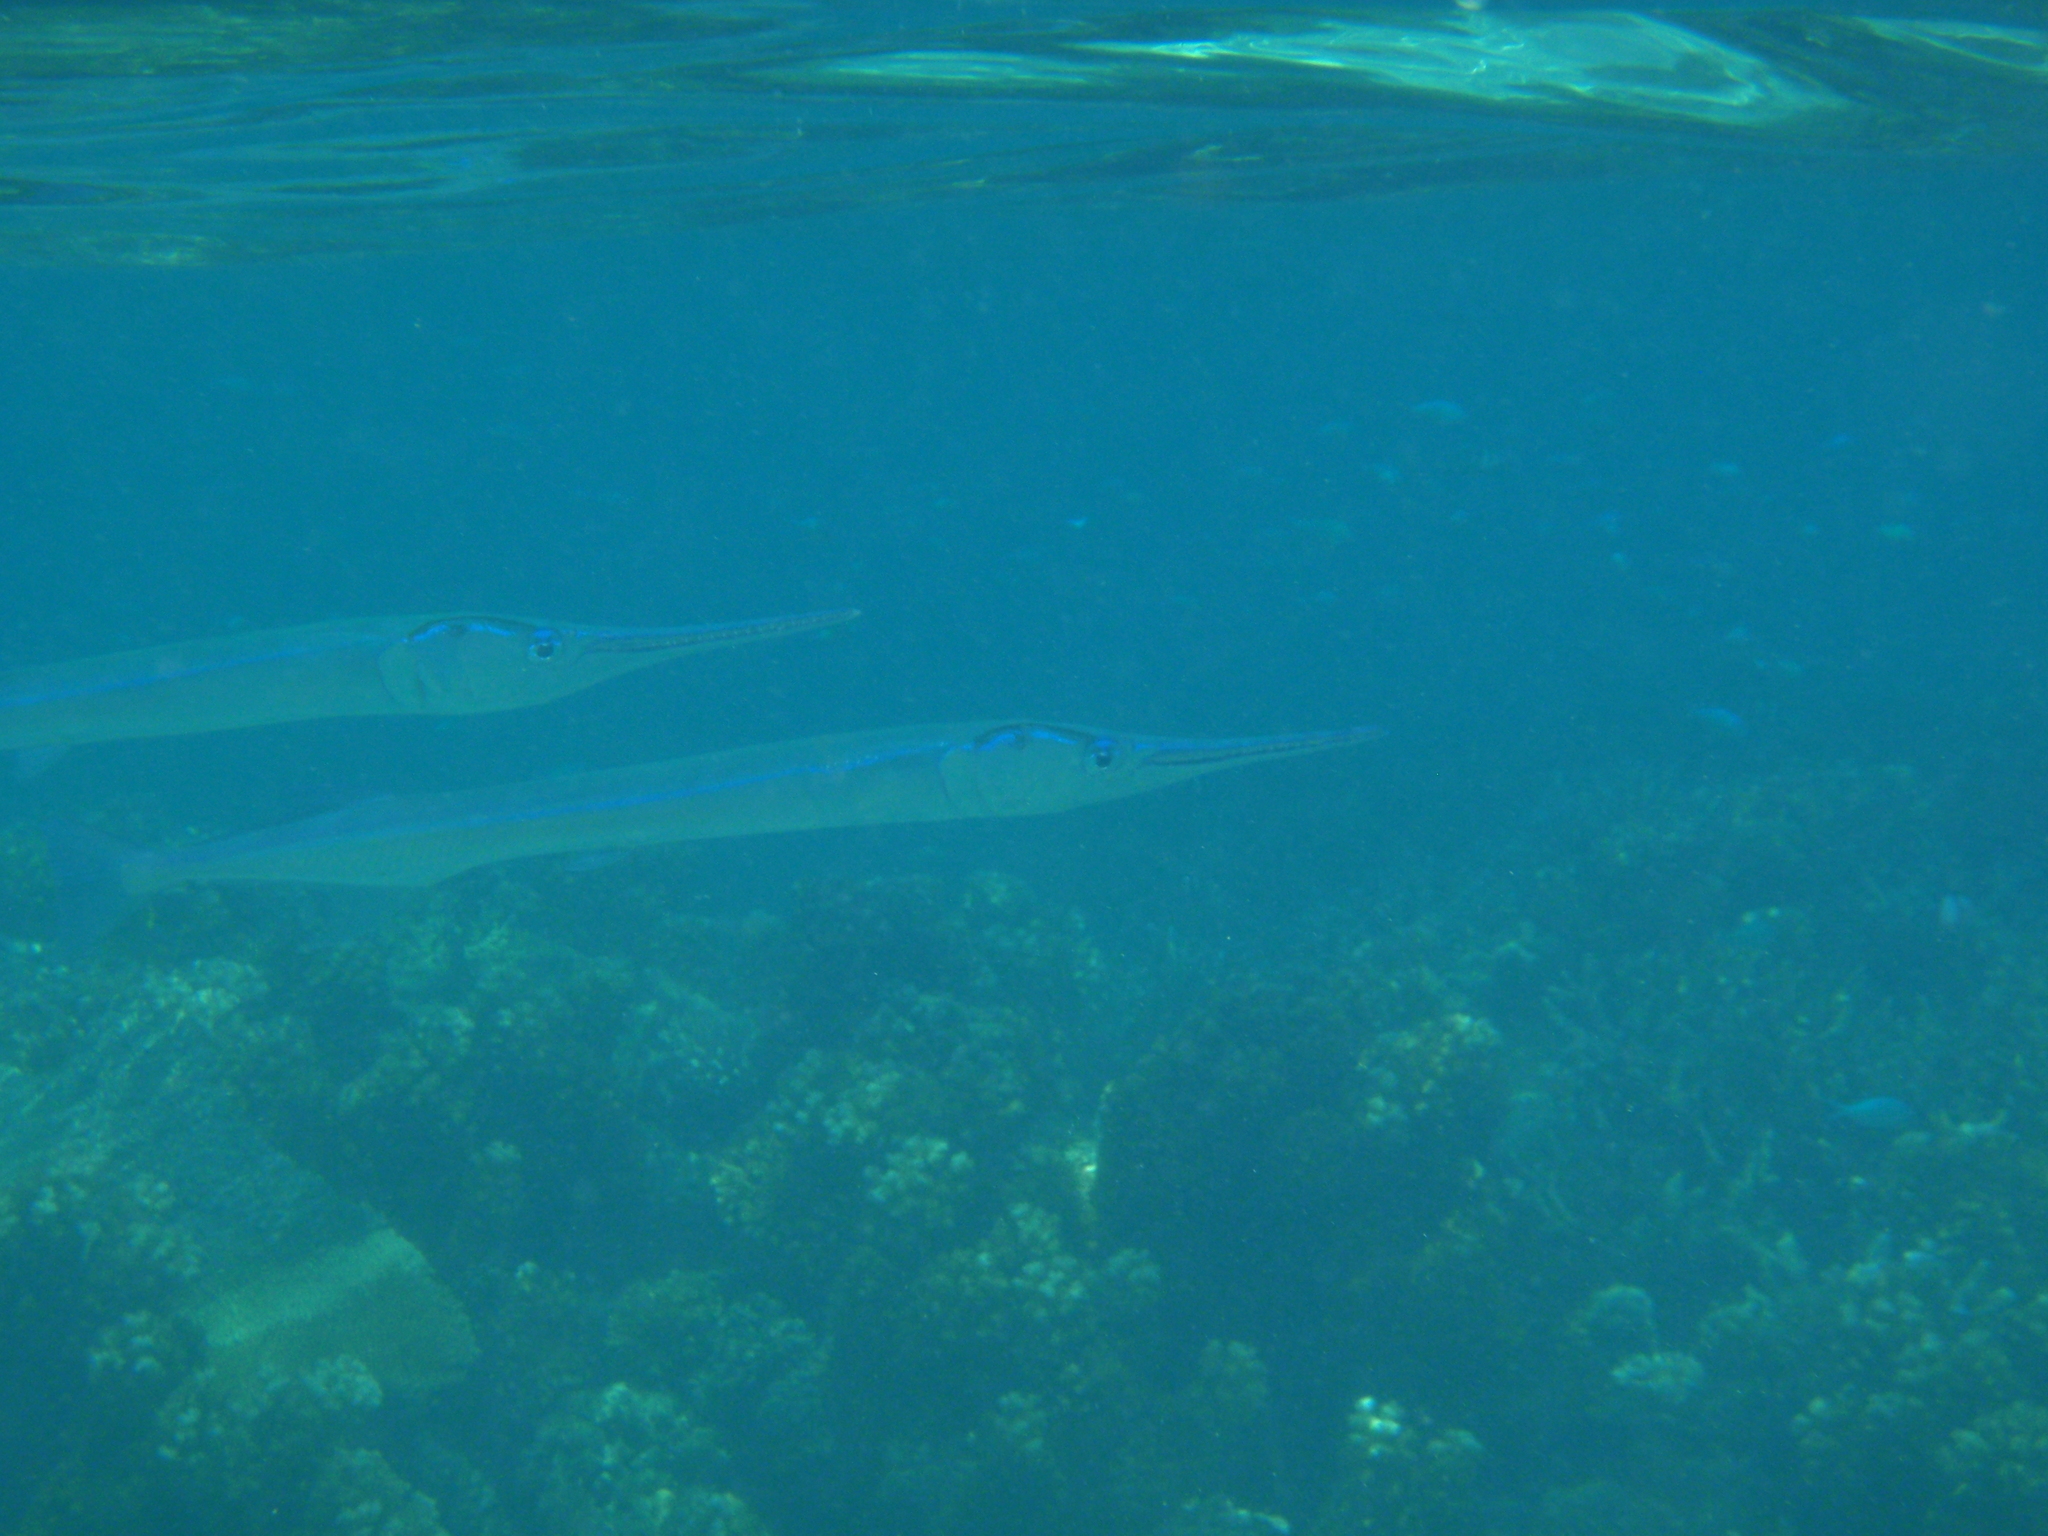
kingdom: Animalia
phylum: Chordata
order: Beloniformes
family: Belonidae
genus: Tylosurus
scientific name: Tylosurus crocodilus
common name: Houndfish
